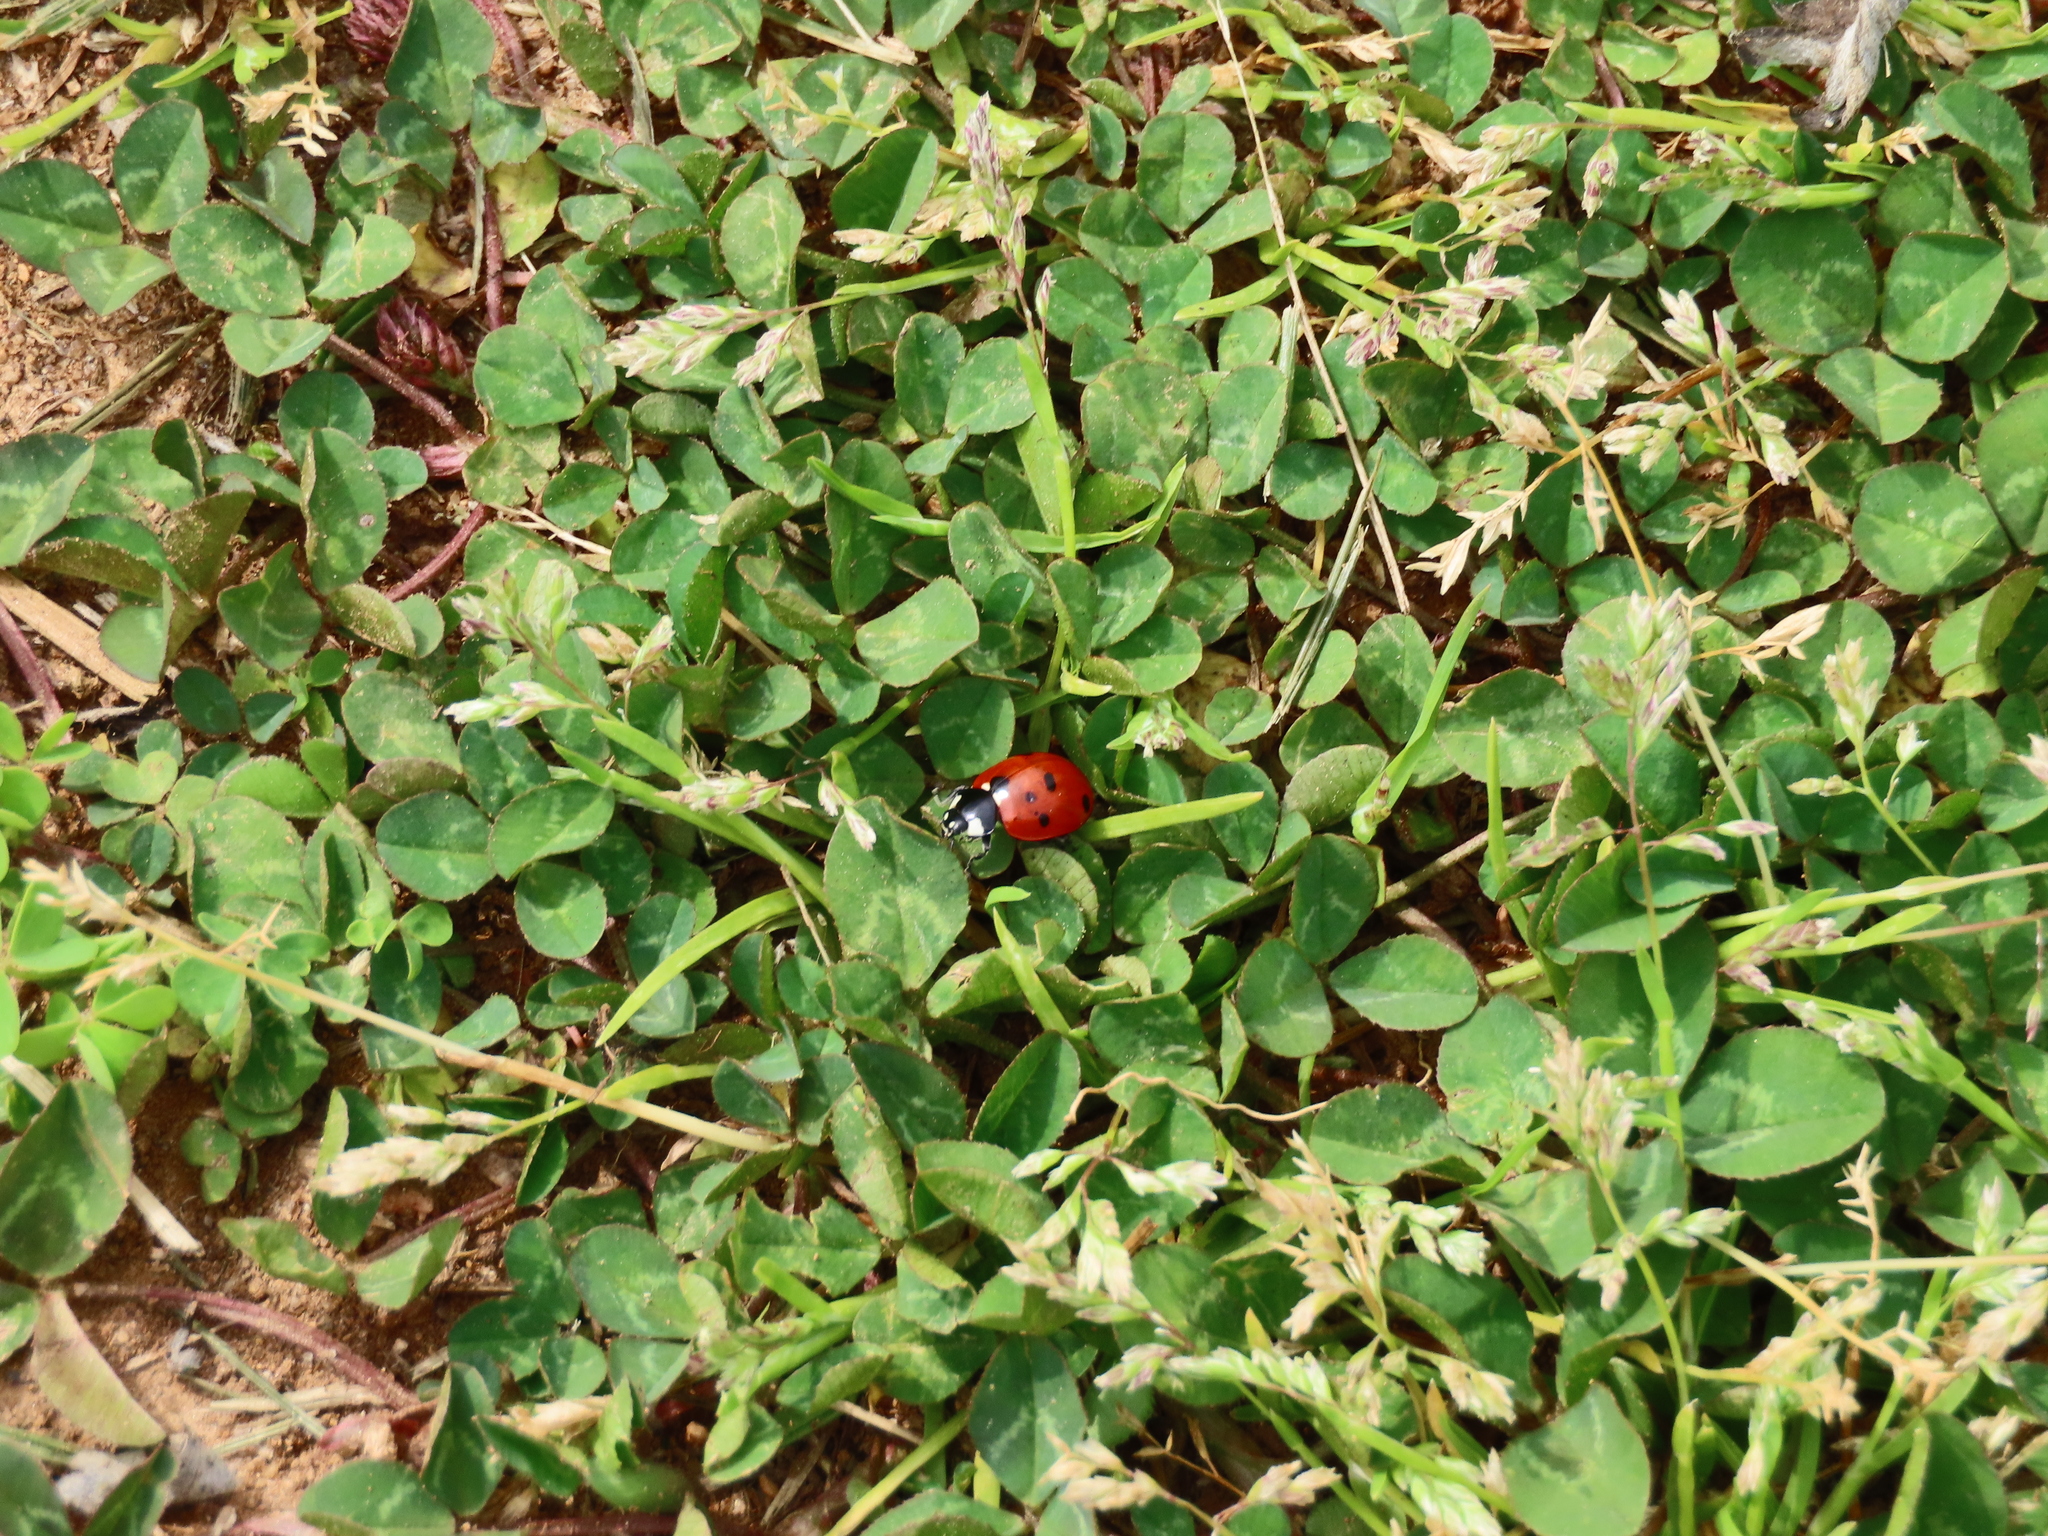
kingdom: Animalia
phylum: Arthropoda
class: Insecta
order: Coleoptera
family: Coccinellidae
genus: Coccinella
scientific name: Coccinella septempunctata
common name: Sevenspotted lady beetle
